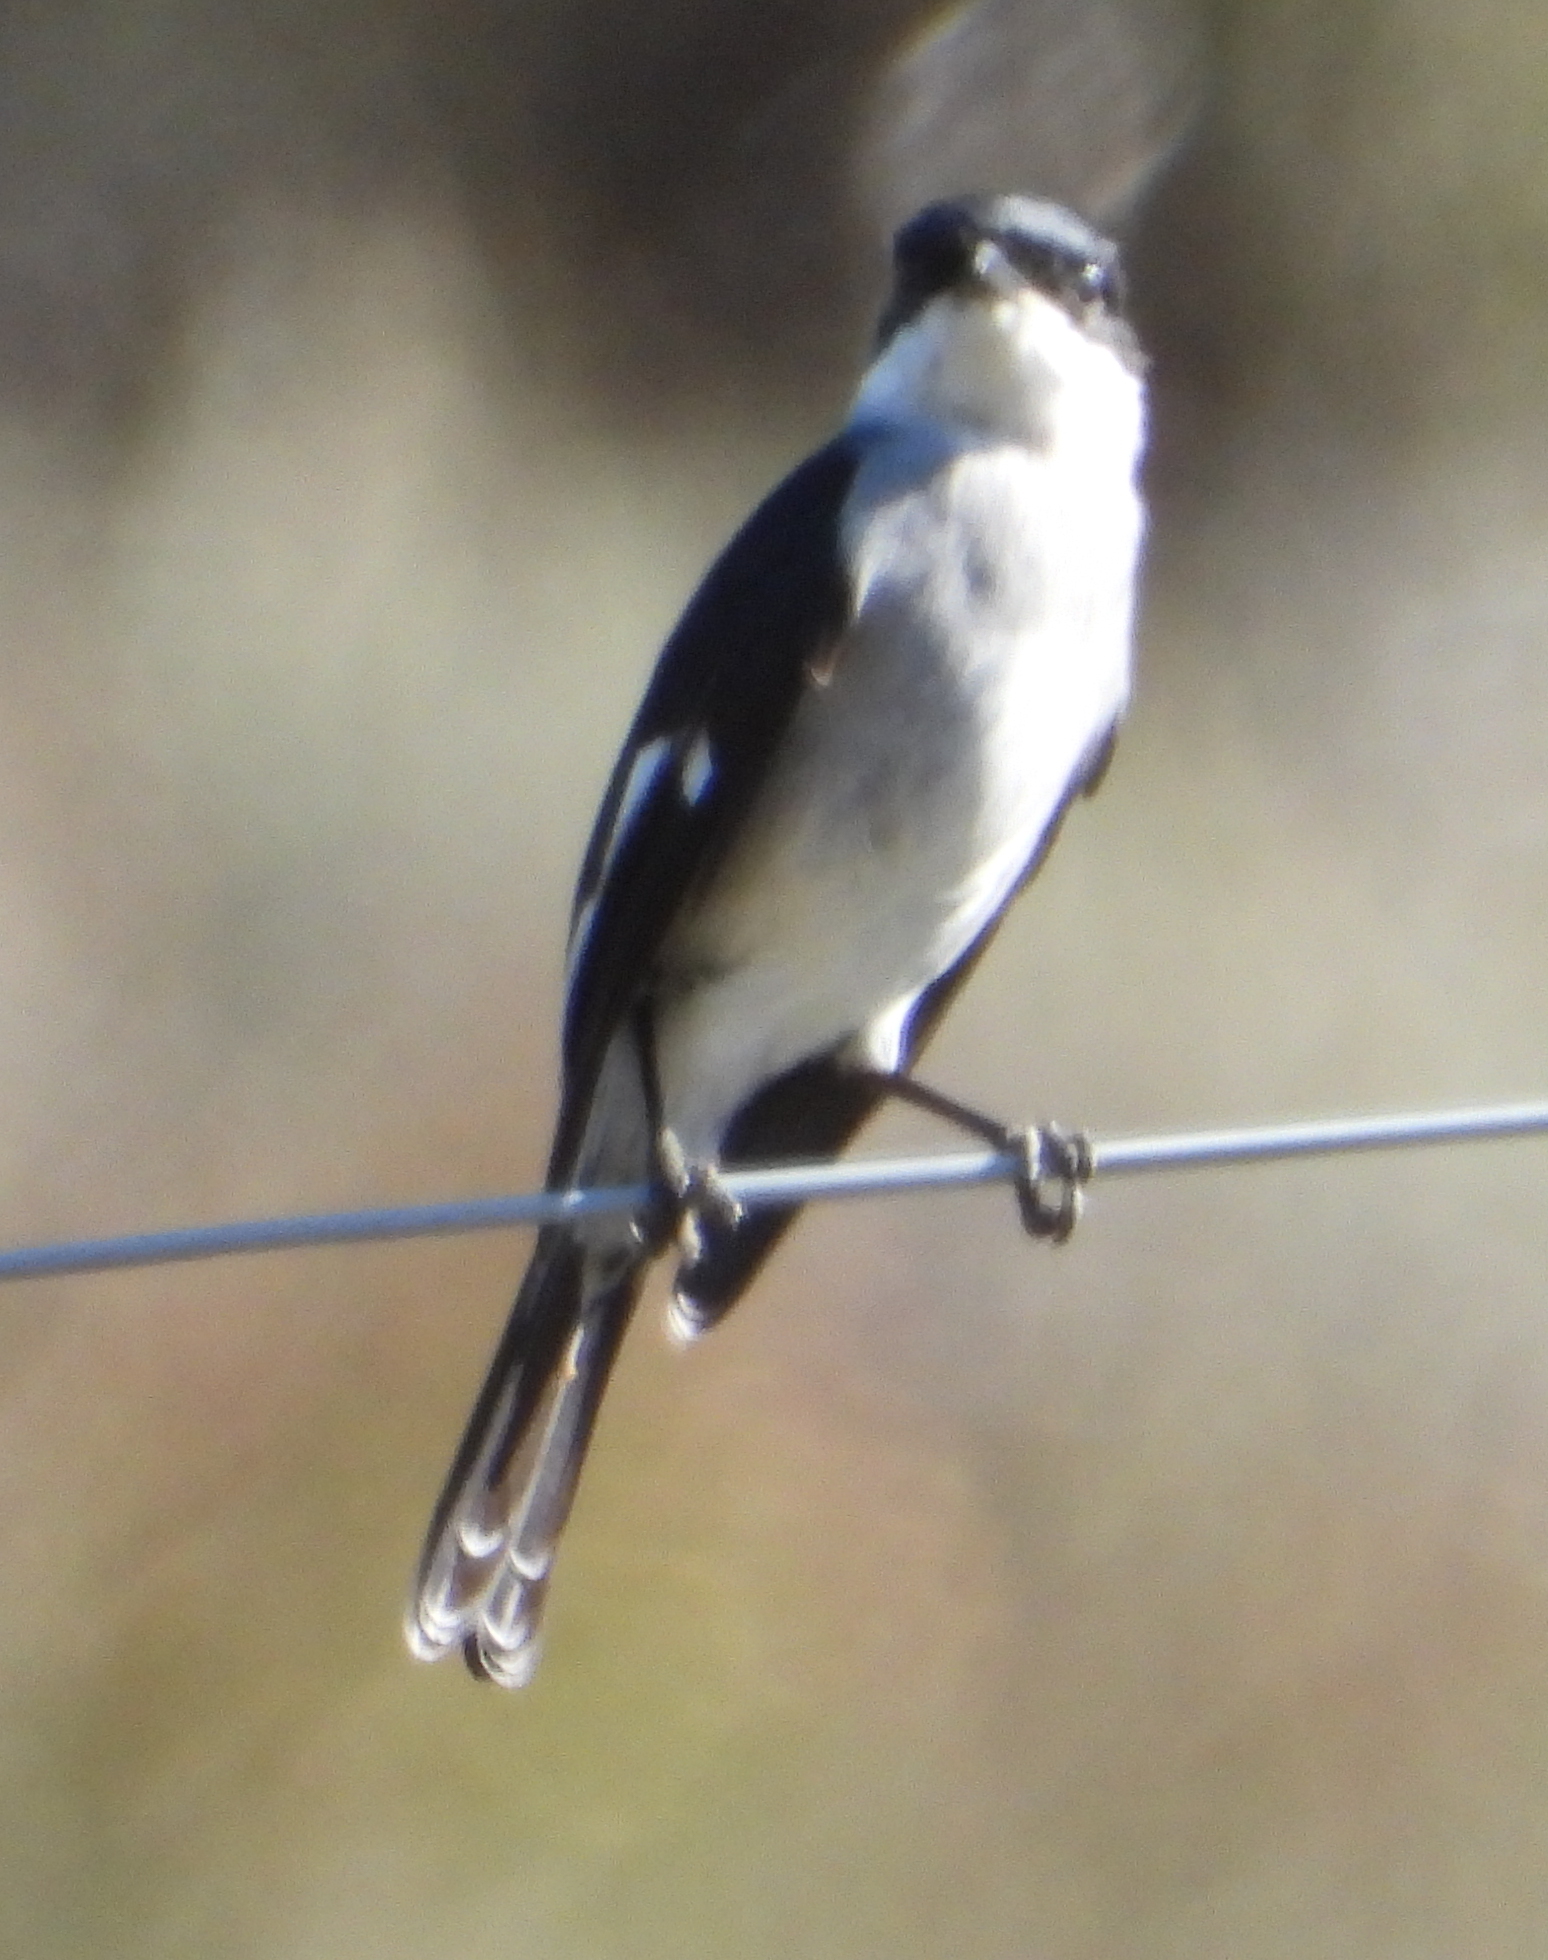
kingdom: Animalia
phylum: Chordata
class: Aves
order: Passeriformes
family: Muscicapidae
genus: Sigelus
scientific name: Sigelus silens
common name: Fiscal flycatcher
